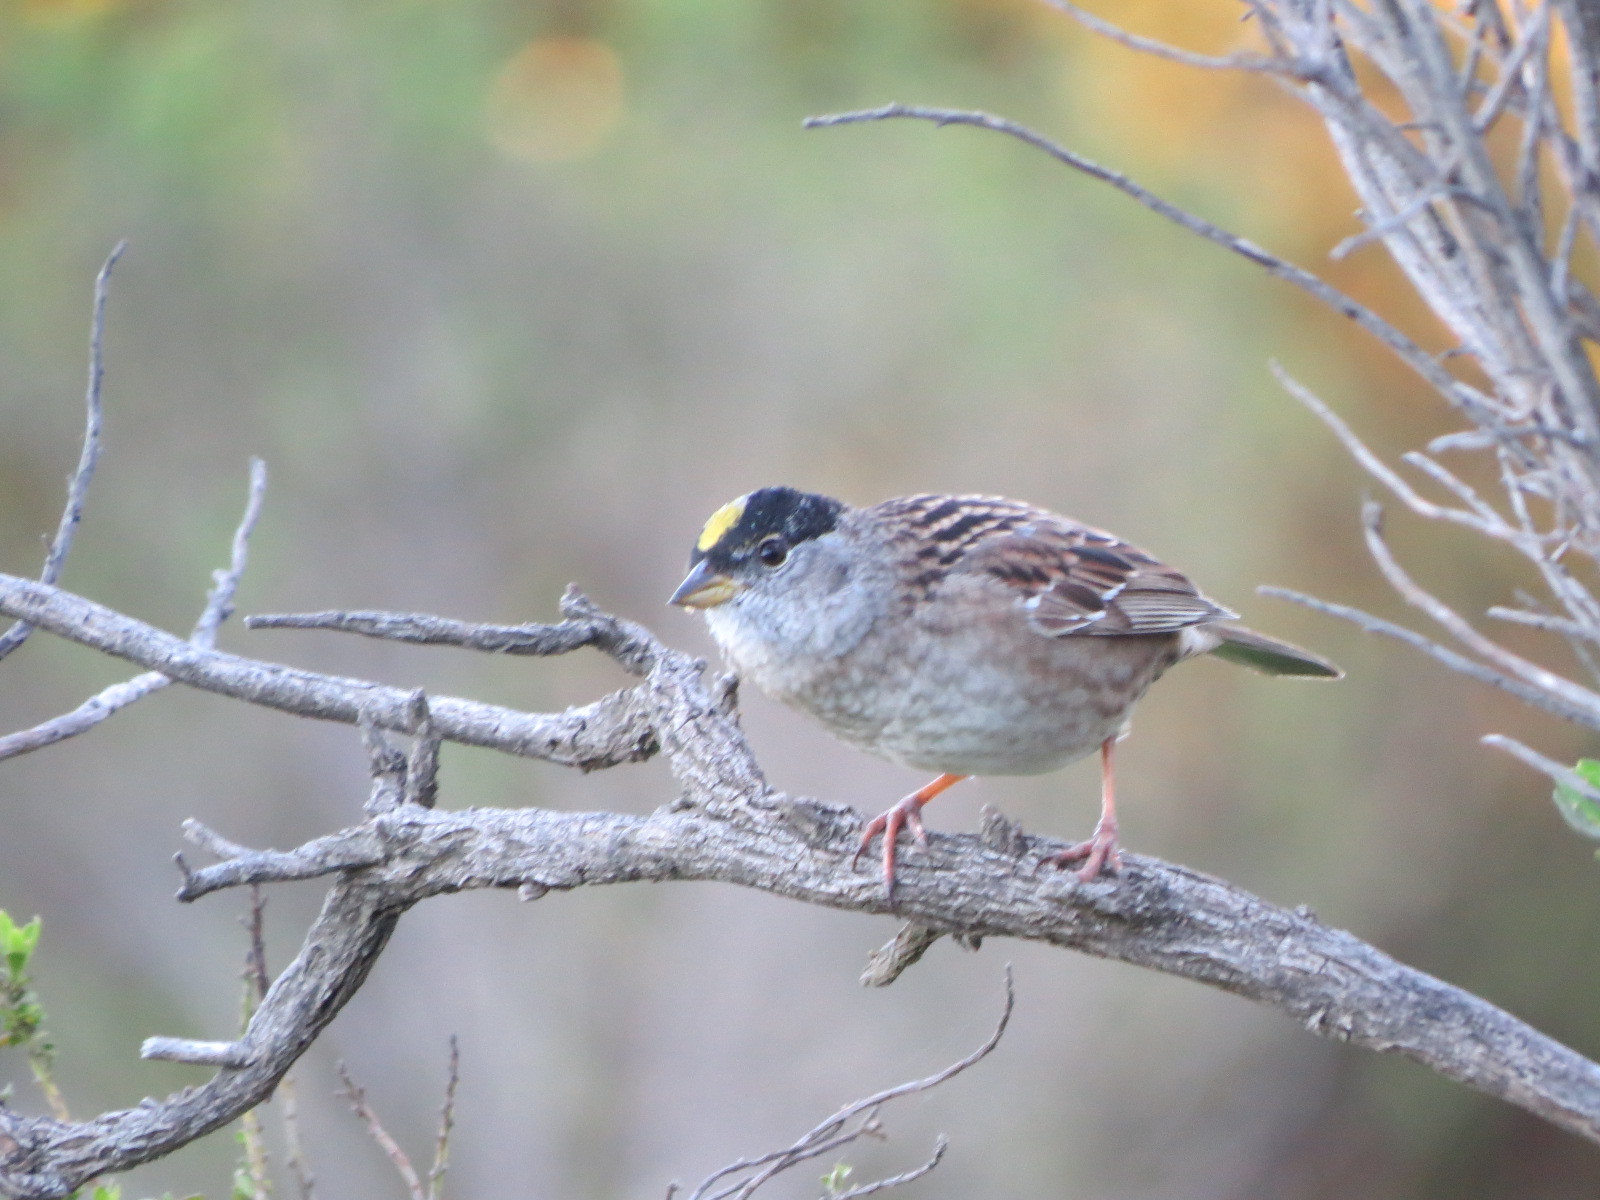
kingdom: Animalia
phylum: Chordata
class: Aves
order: Passeriformes
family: Passerellidae
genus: Zonotrichia
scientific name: Zonotrichia atricapilla
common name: Golden-crowned sparrow
